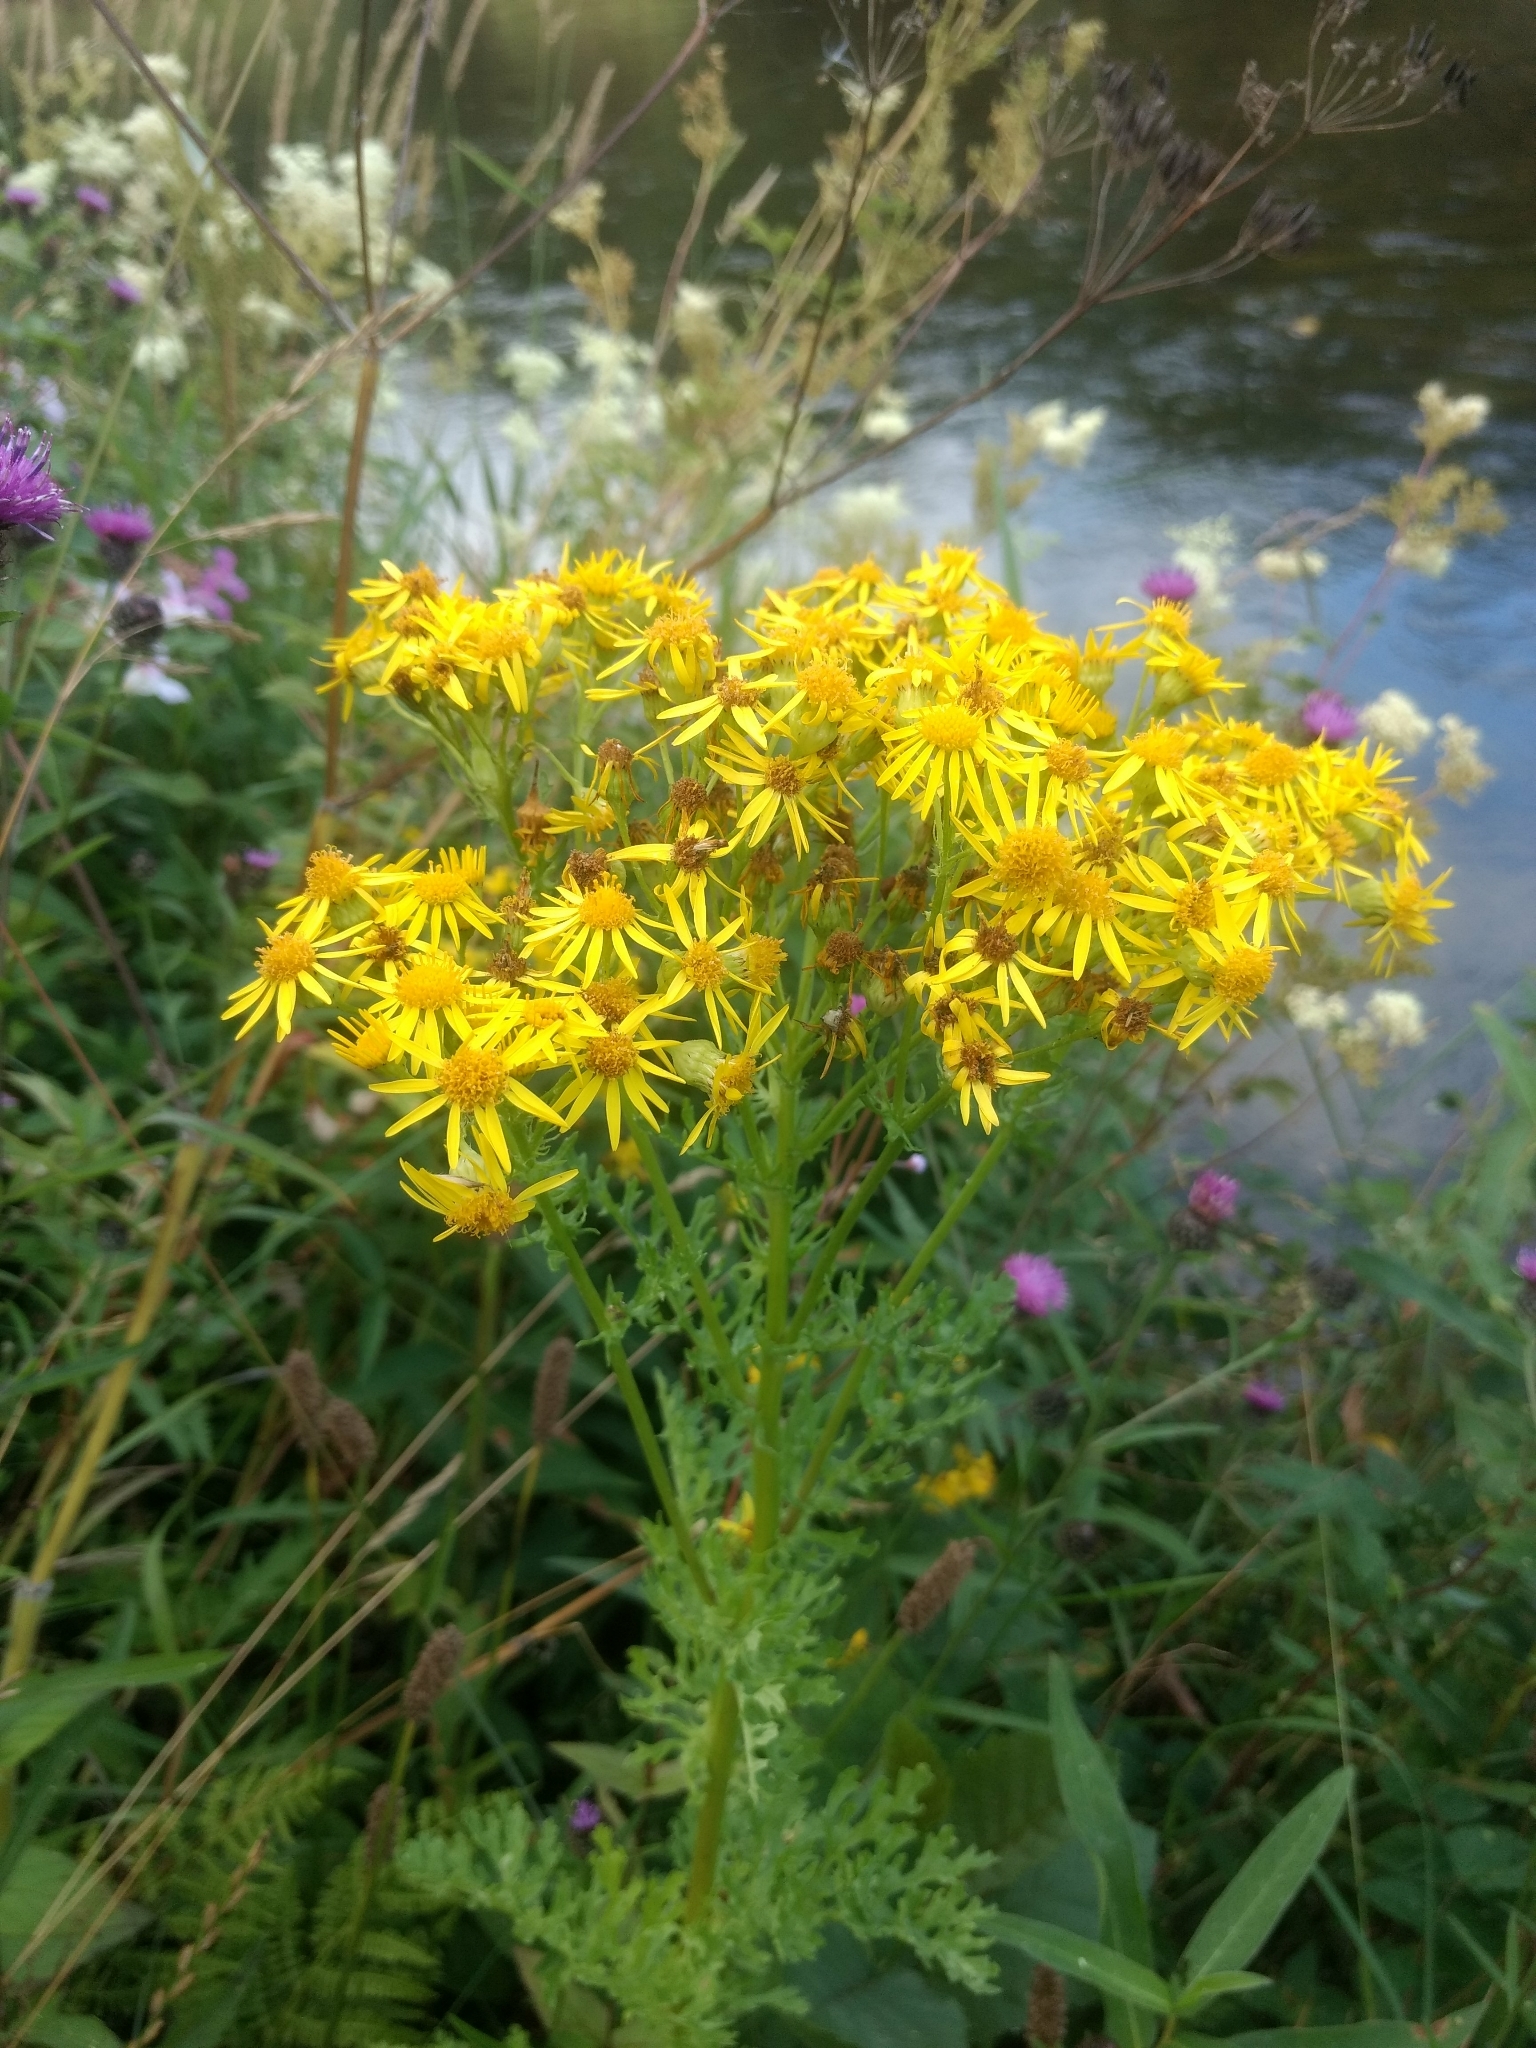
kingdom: Plantae
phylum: Tracheophyta
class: Magnoliopsida
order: Asterales
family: Asteraceae
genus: Jacobaea
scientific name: Jacobaea vulgaris
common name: Stinking willie
